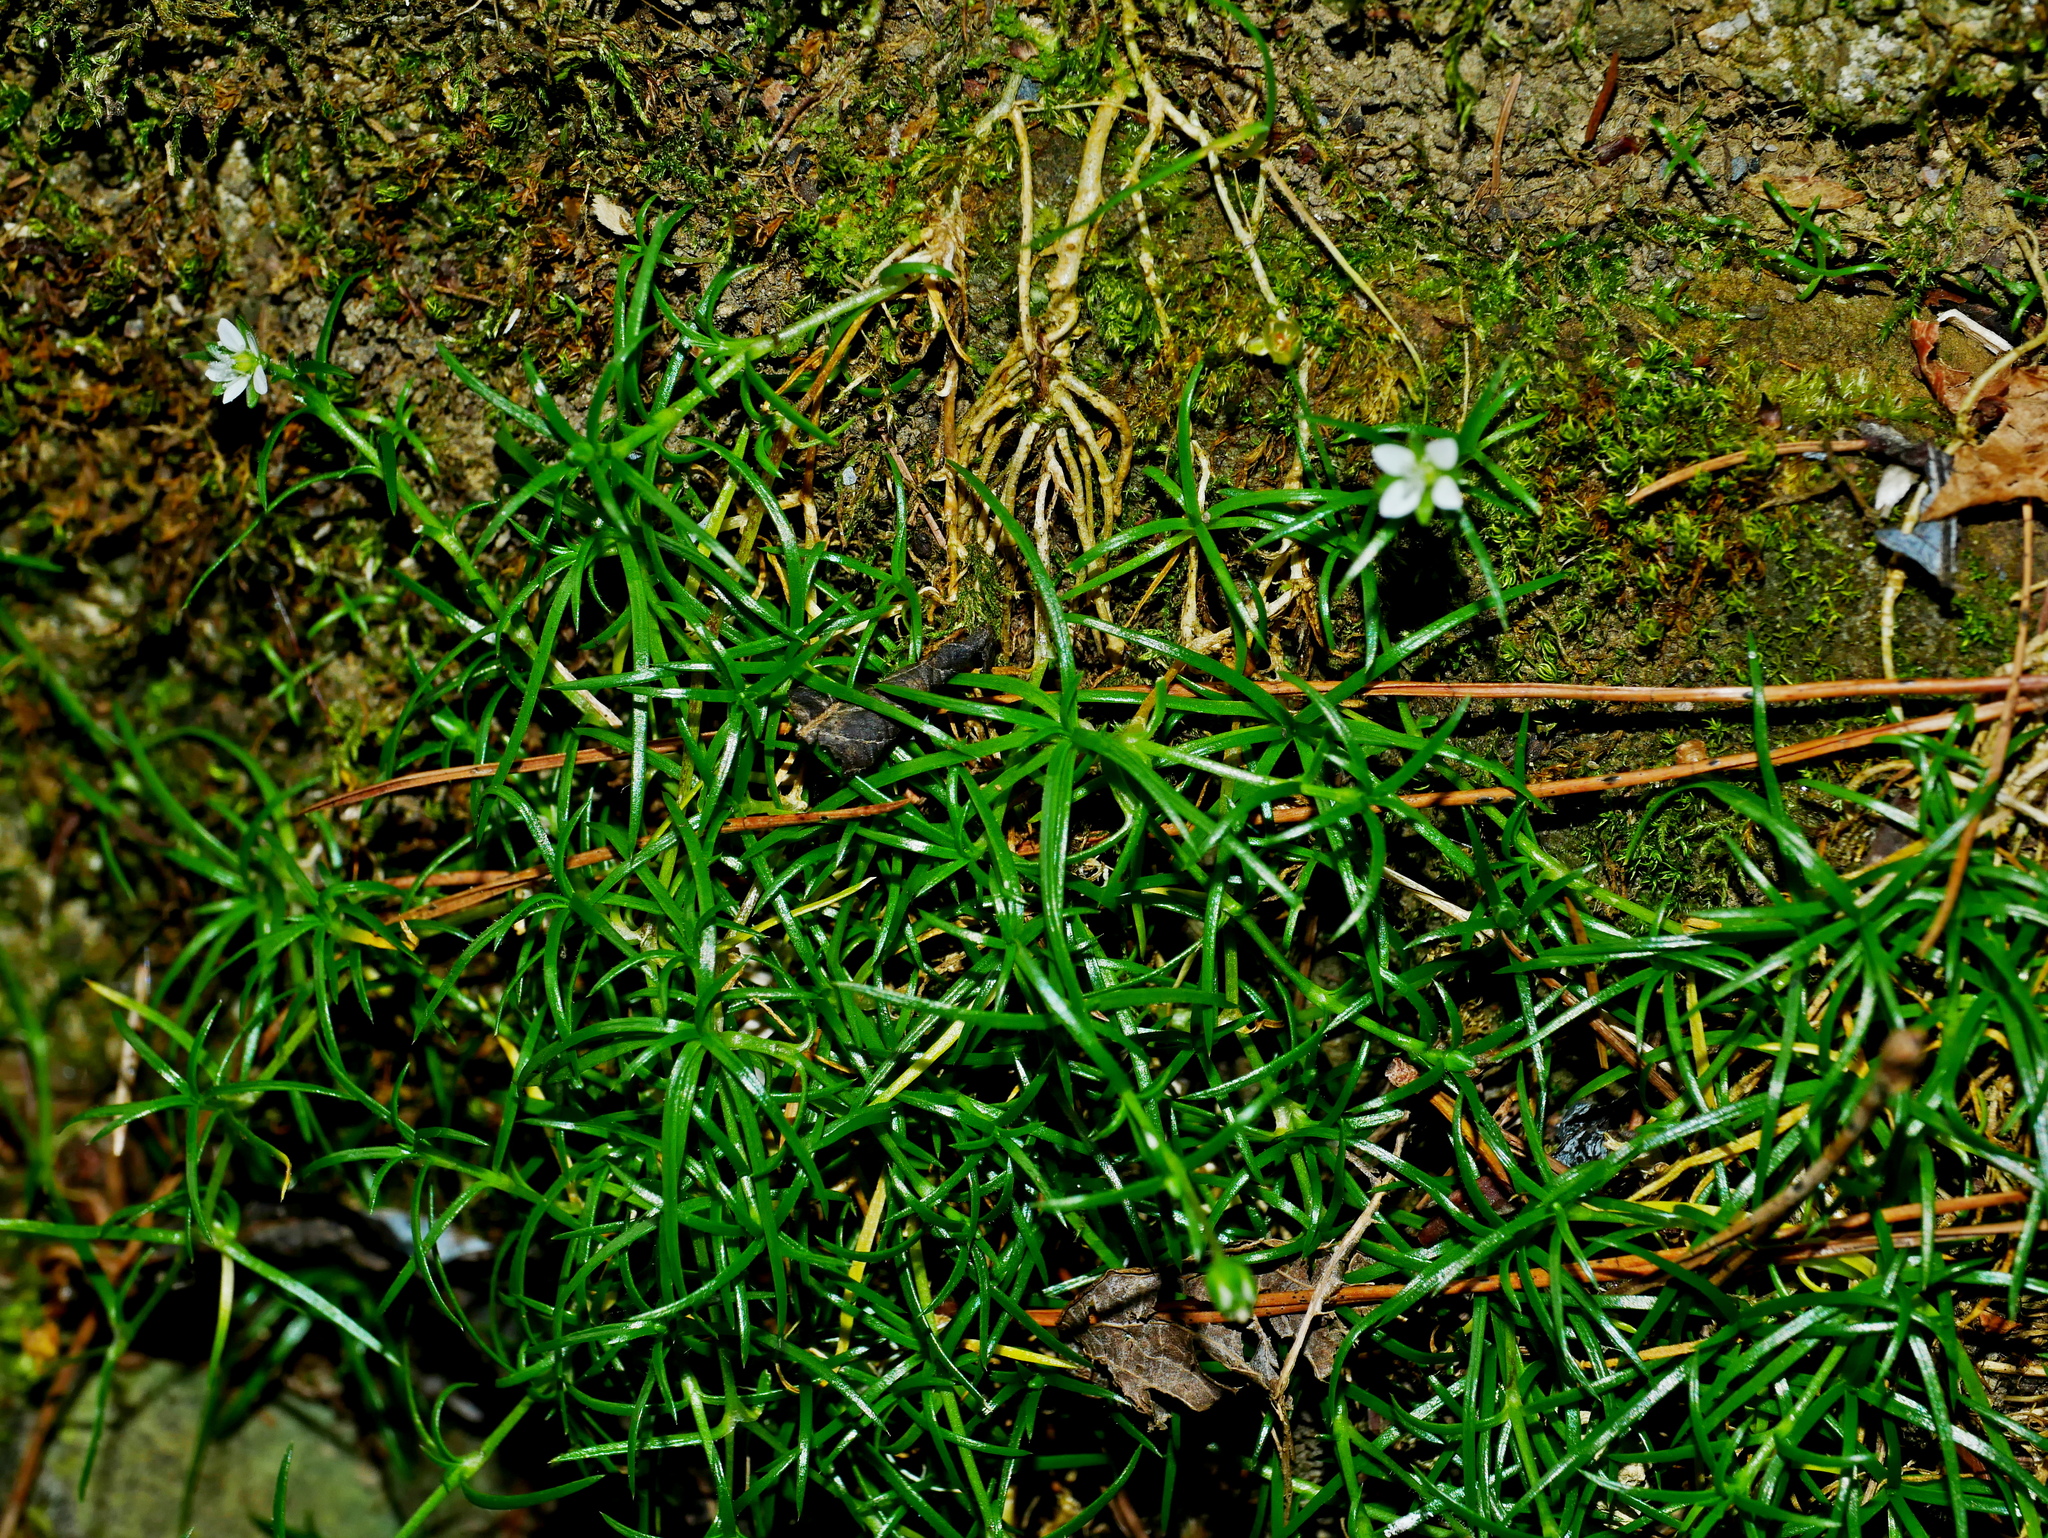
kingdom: Plantae
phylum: Tracheophyta
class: Magnoliopsida
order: Caryophyllales
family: Caryophyllaceae
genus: Sagina
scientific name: Sagina japonica
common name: Japanese pearlwort
